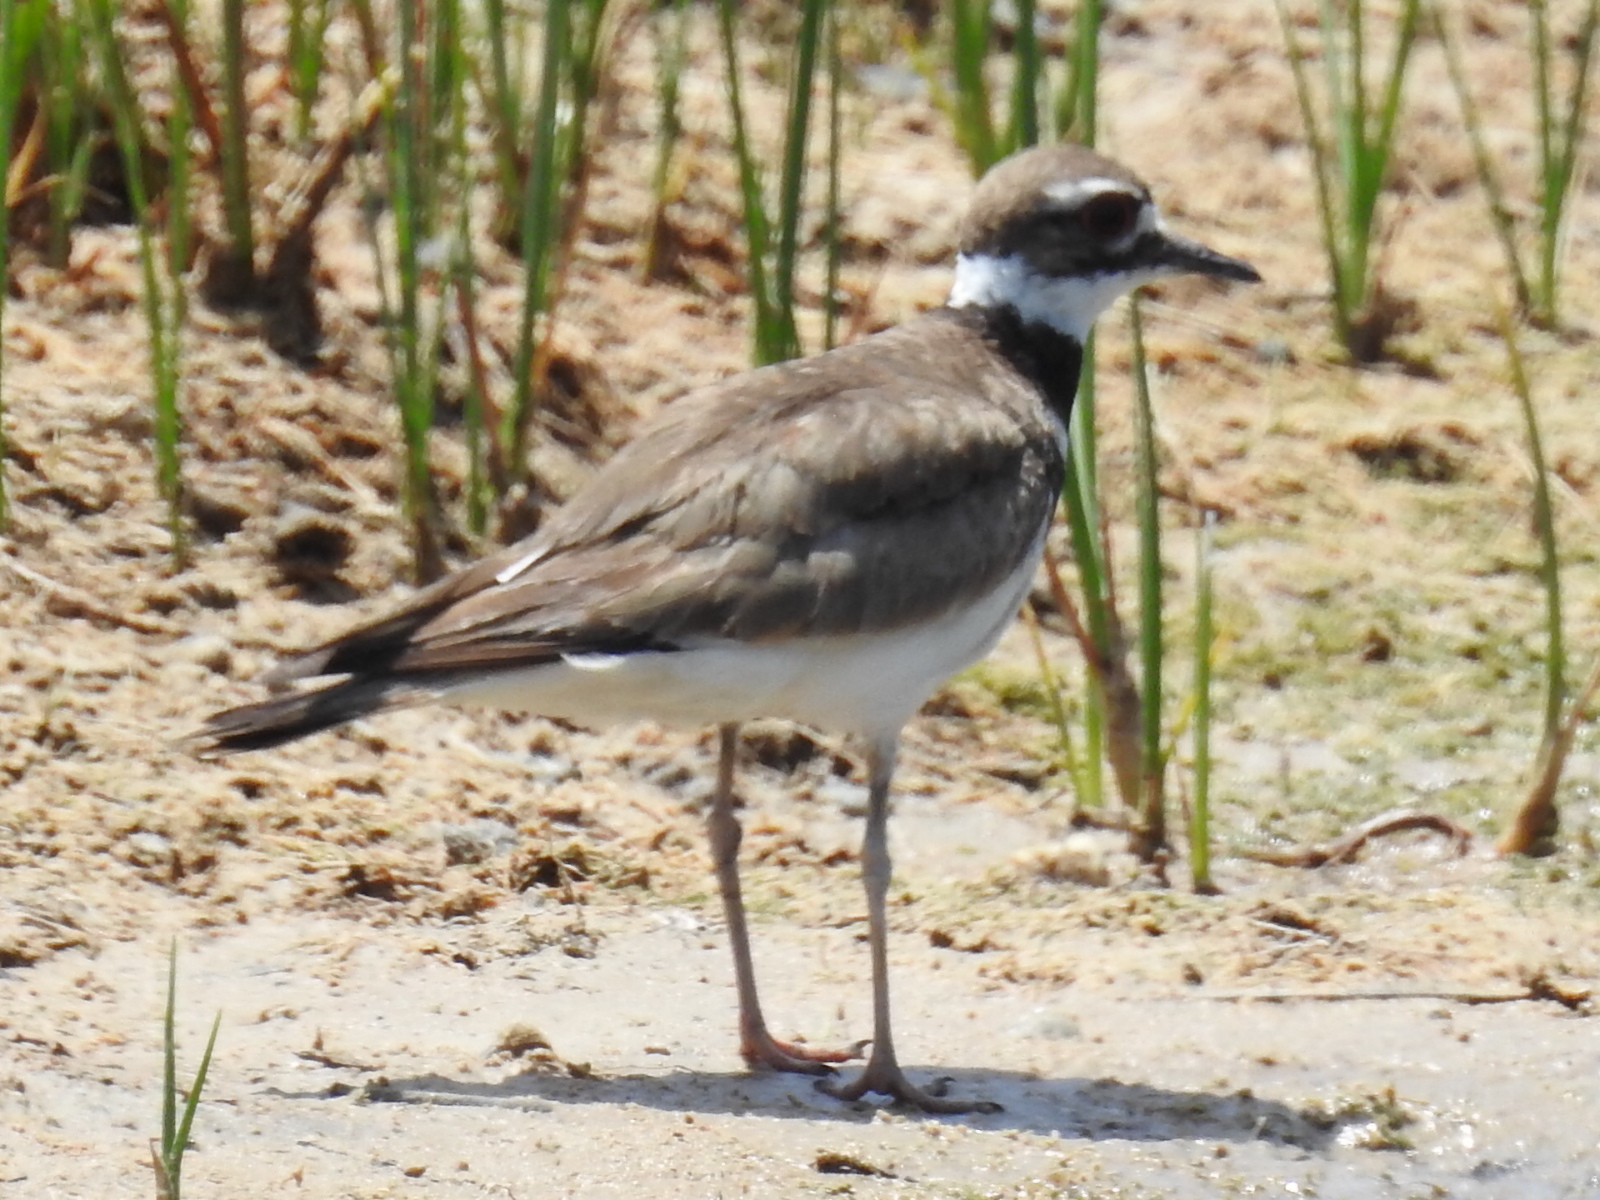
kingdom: Animalia
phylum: Chordata
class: Aves
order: Charadriiformes
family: Charadriidae
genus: Charadrius
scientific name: Charadrius vociferus
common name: Killdeer
